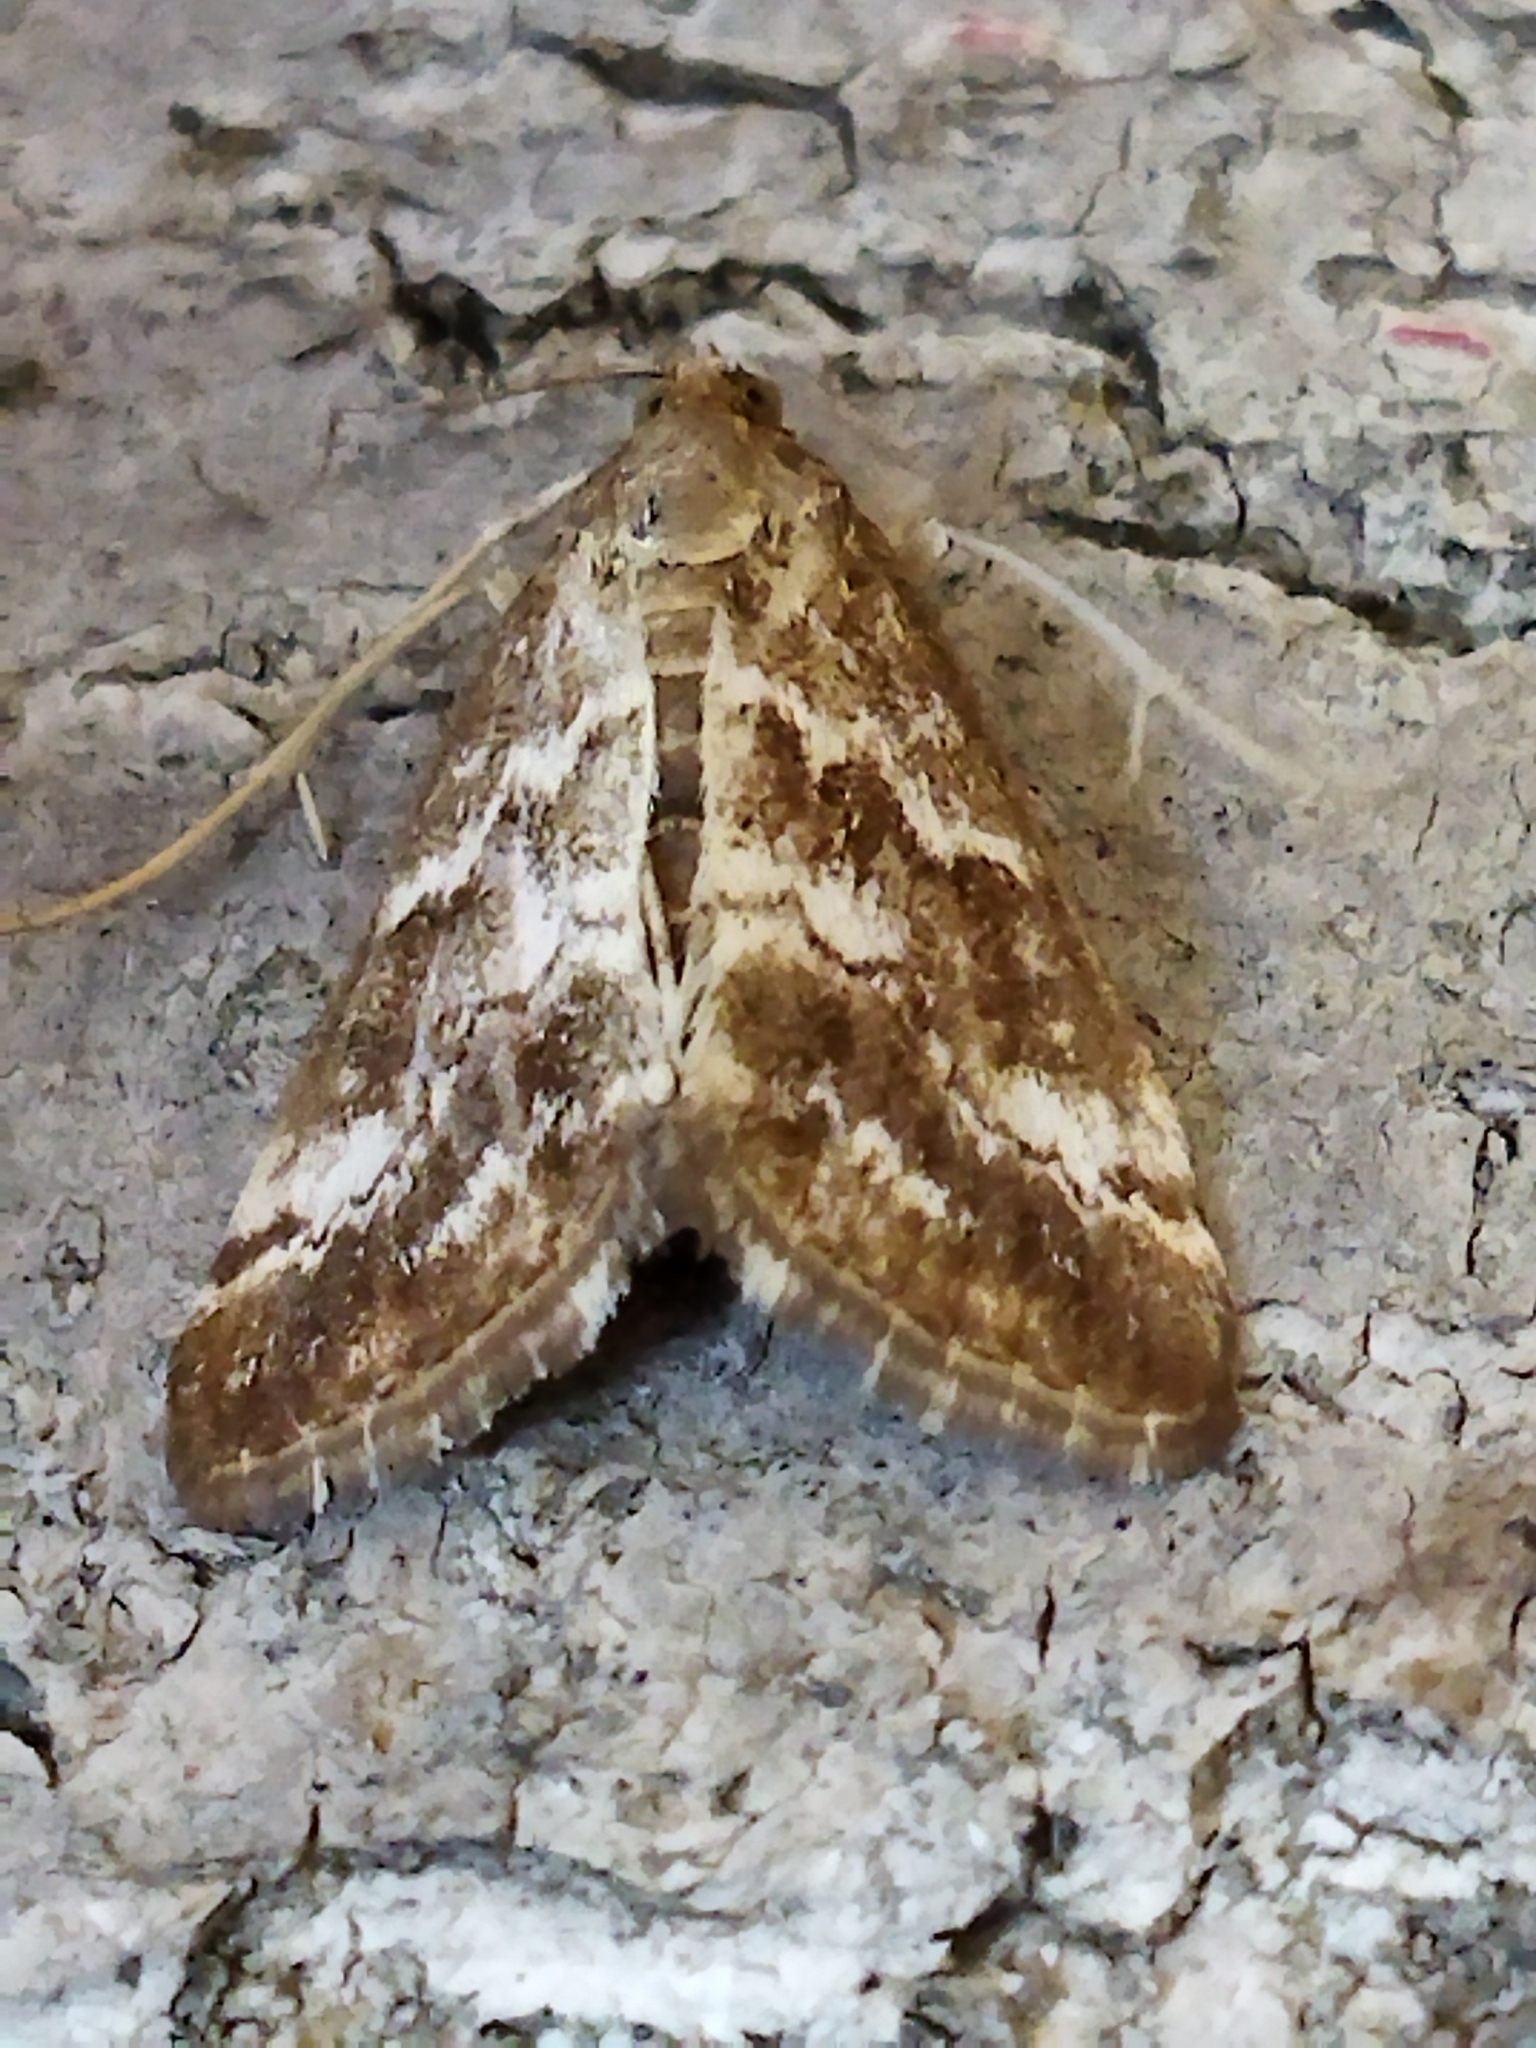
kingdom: Animalia
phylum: Arthropoda
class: Insecta
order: Lepidoptera
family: Crambidae
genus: Evergestis
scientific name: Evergestis frumentalis
